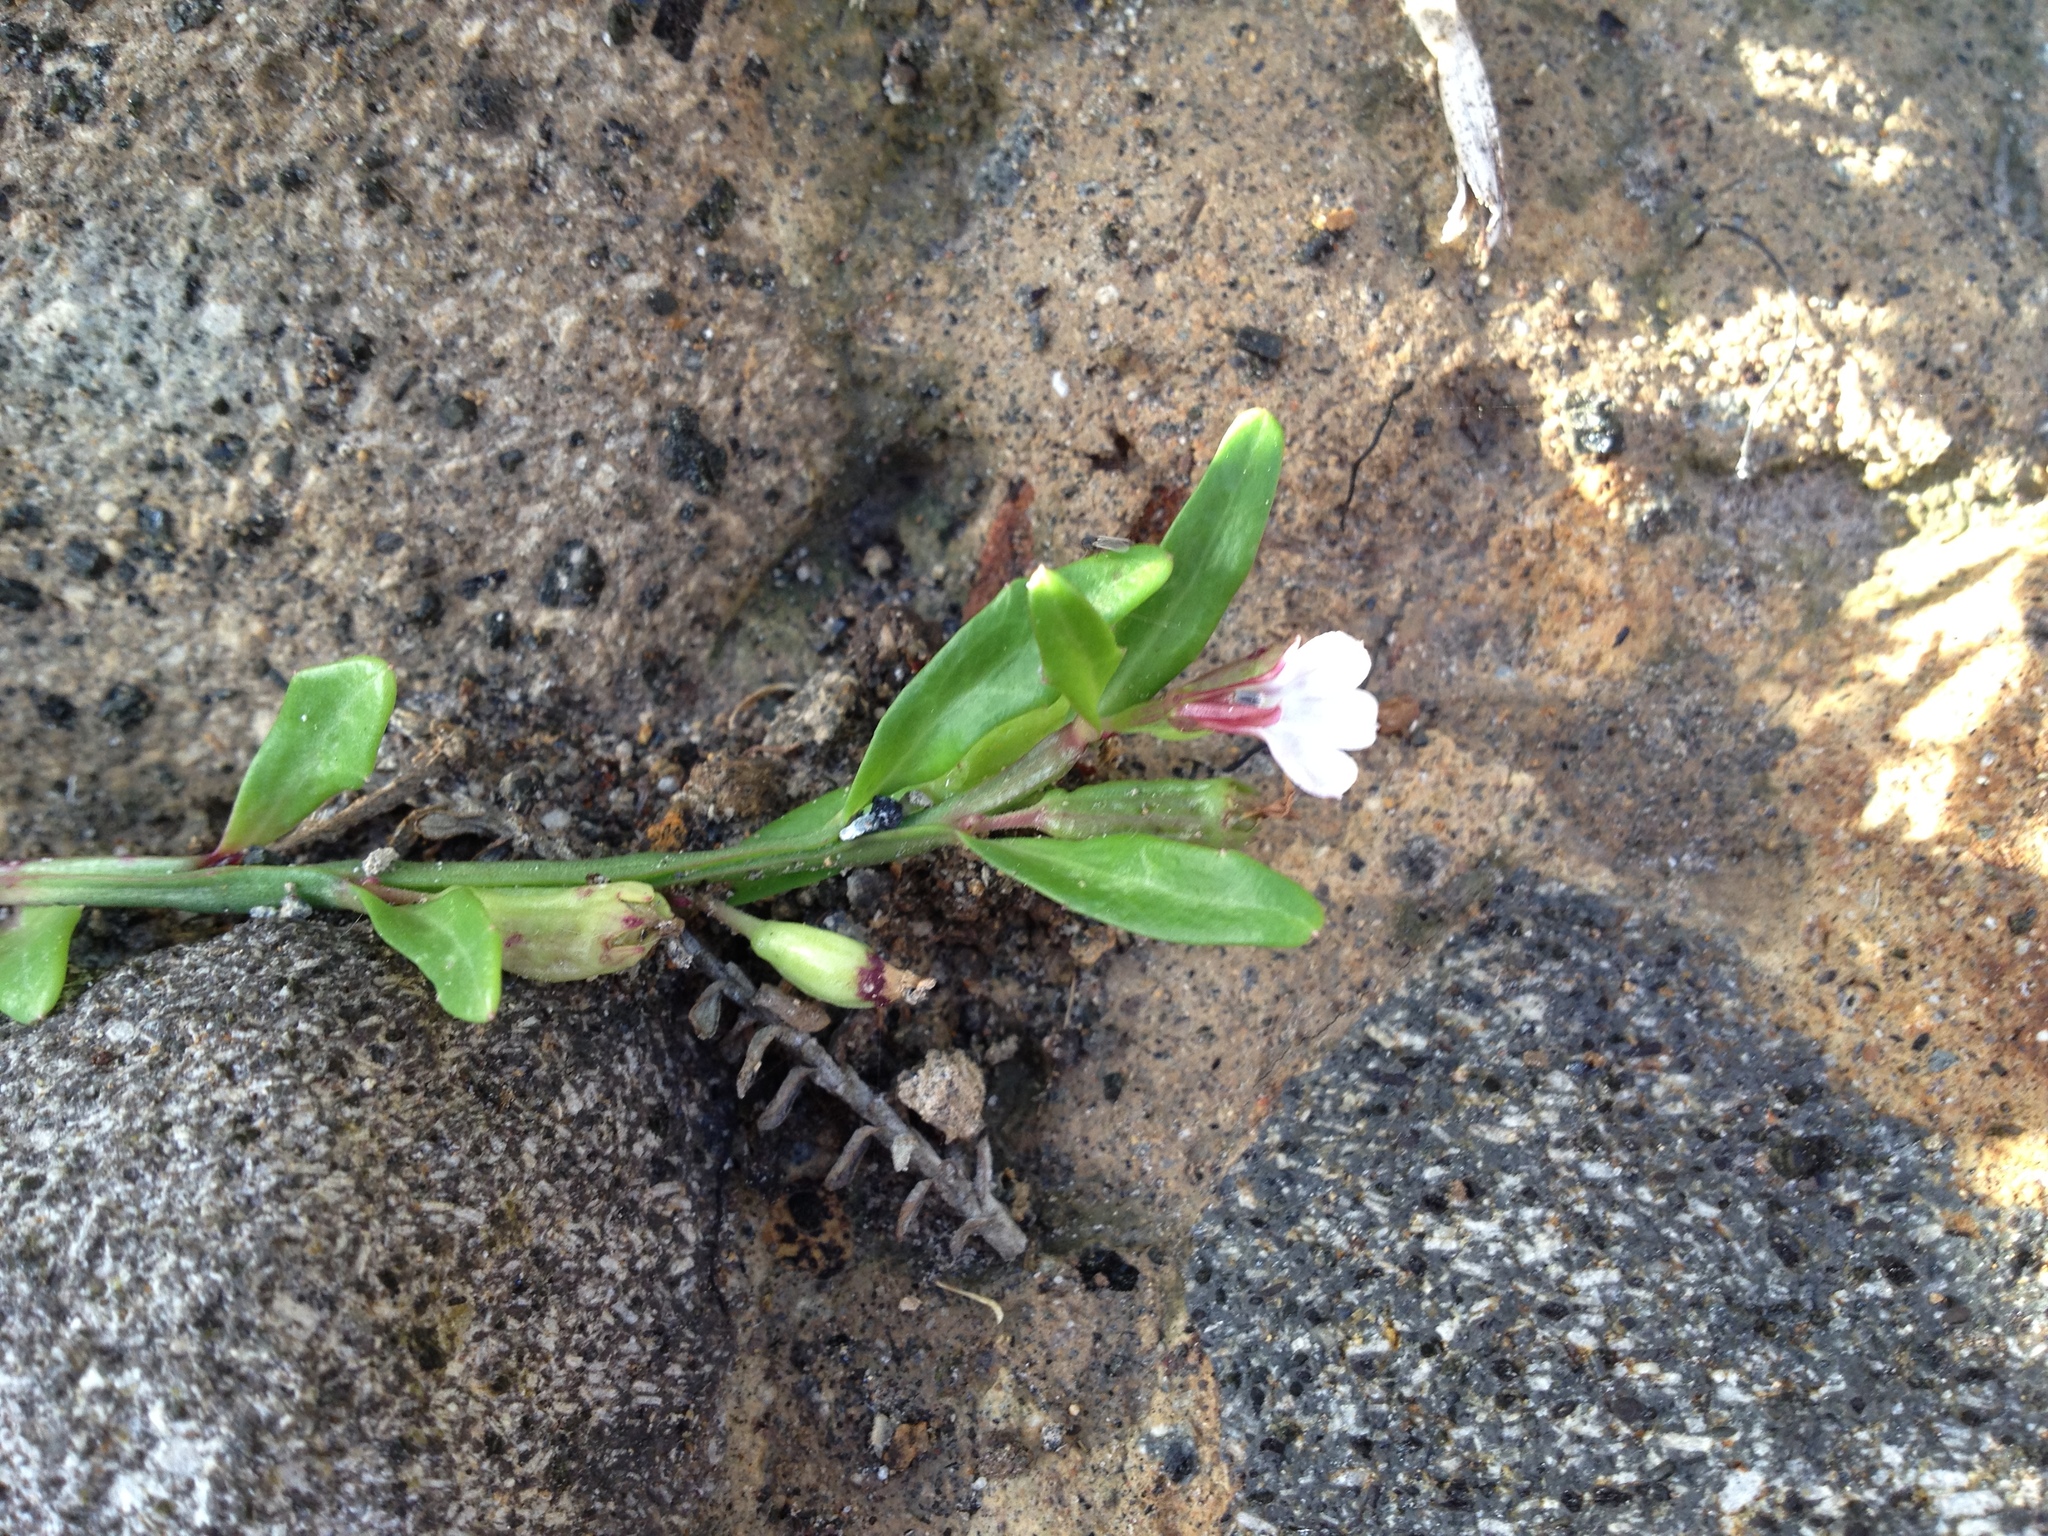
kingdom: Plantae
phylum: Tracheophyta
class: Magnoliopsida
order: Asterales
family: Campanulaceae
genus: Lobelia
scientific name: Lobelia anceps
